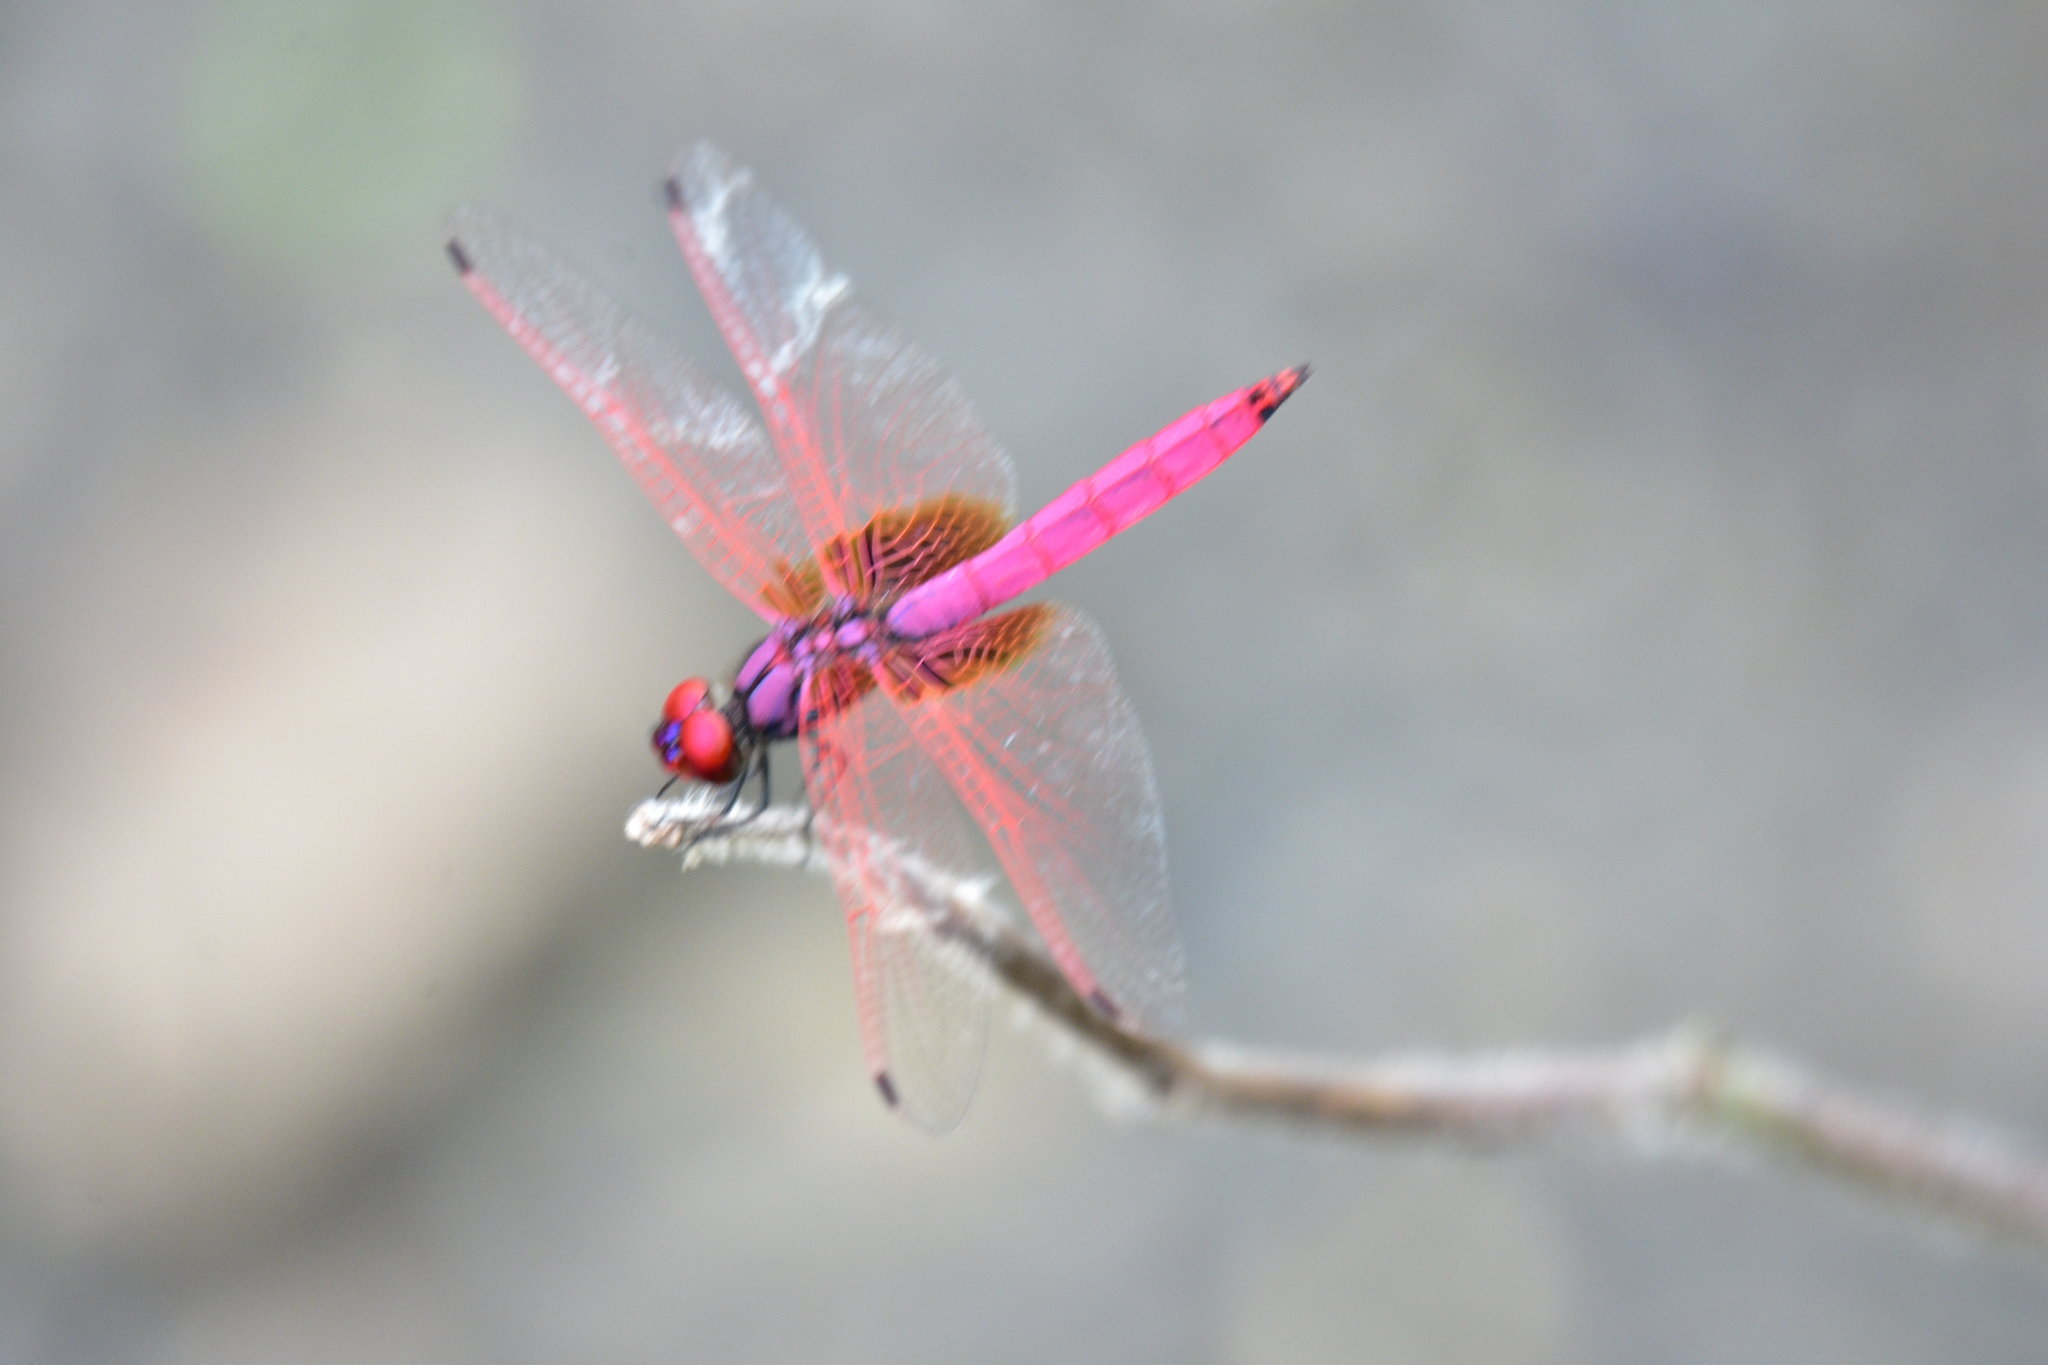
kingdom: Animalia
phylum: Arthropoda
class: Insecta
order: Odonata
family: Libellulidae
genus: Trithemis
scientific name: Trithemis aurora
